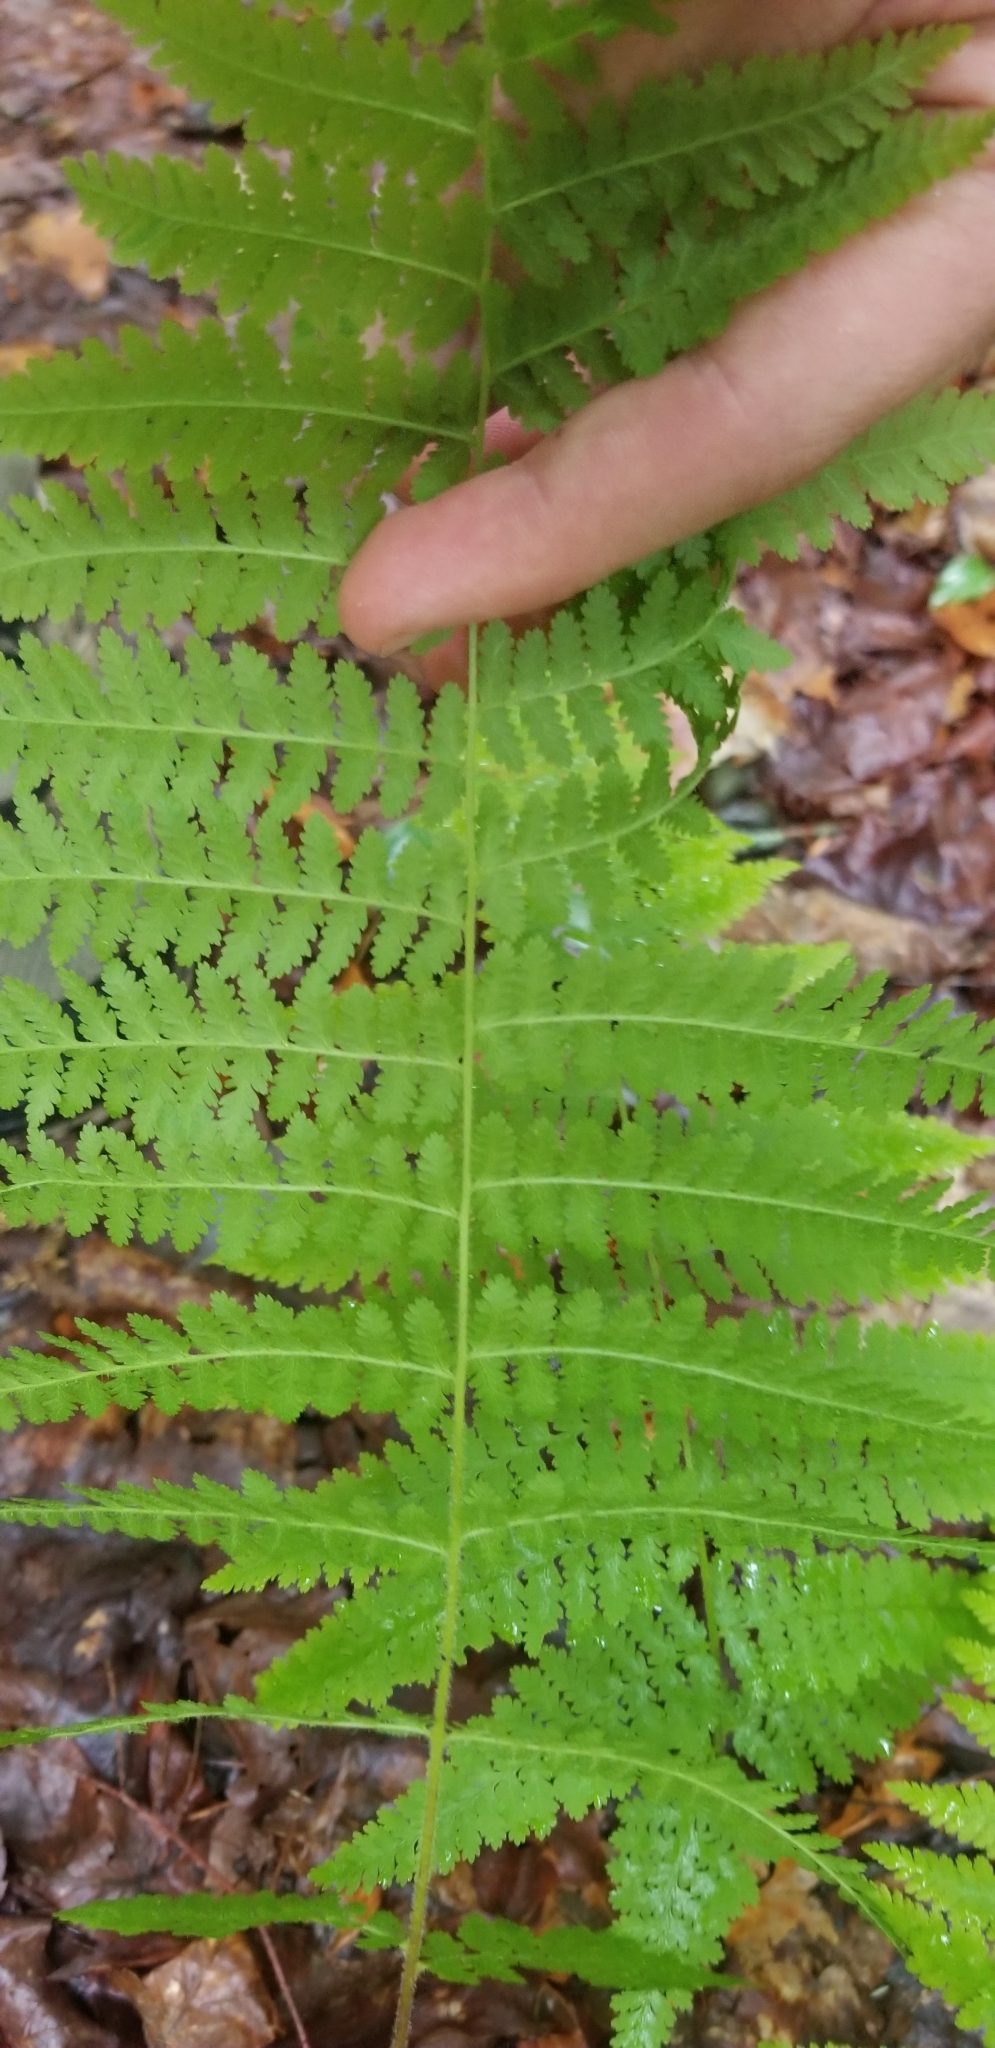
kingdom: Plantae
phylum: Tracheophyta
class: Polypodiopsida
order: Polypodiales
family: Dennstaedtiaceae
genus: Sitobolium
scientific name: Sitobolium punctilobum
